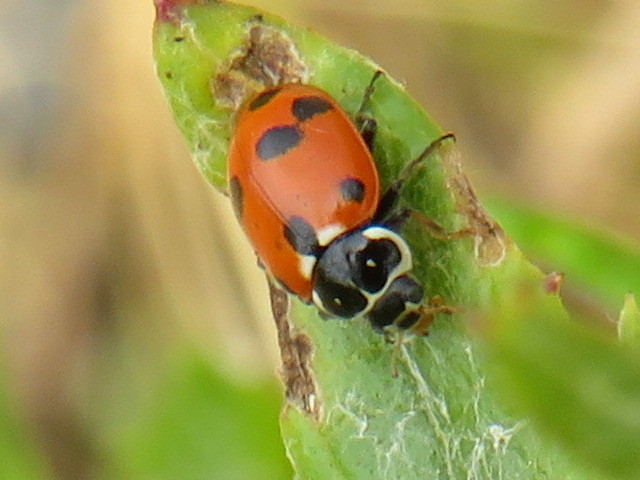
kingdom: Animalia
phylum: Arthropoda
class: Insecta
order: Coleoptera
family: Coccinellidae
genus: Hippodamia
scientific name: Hippodamia variegata
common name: Ladybird beetle
